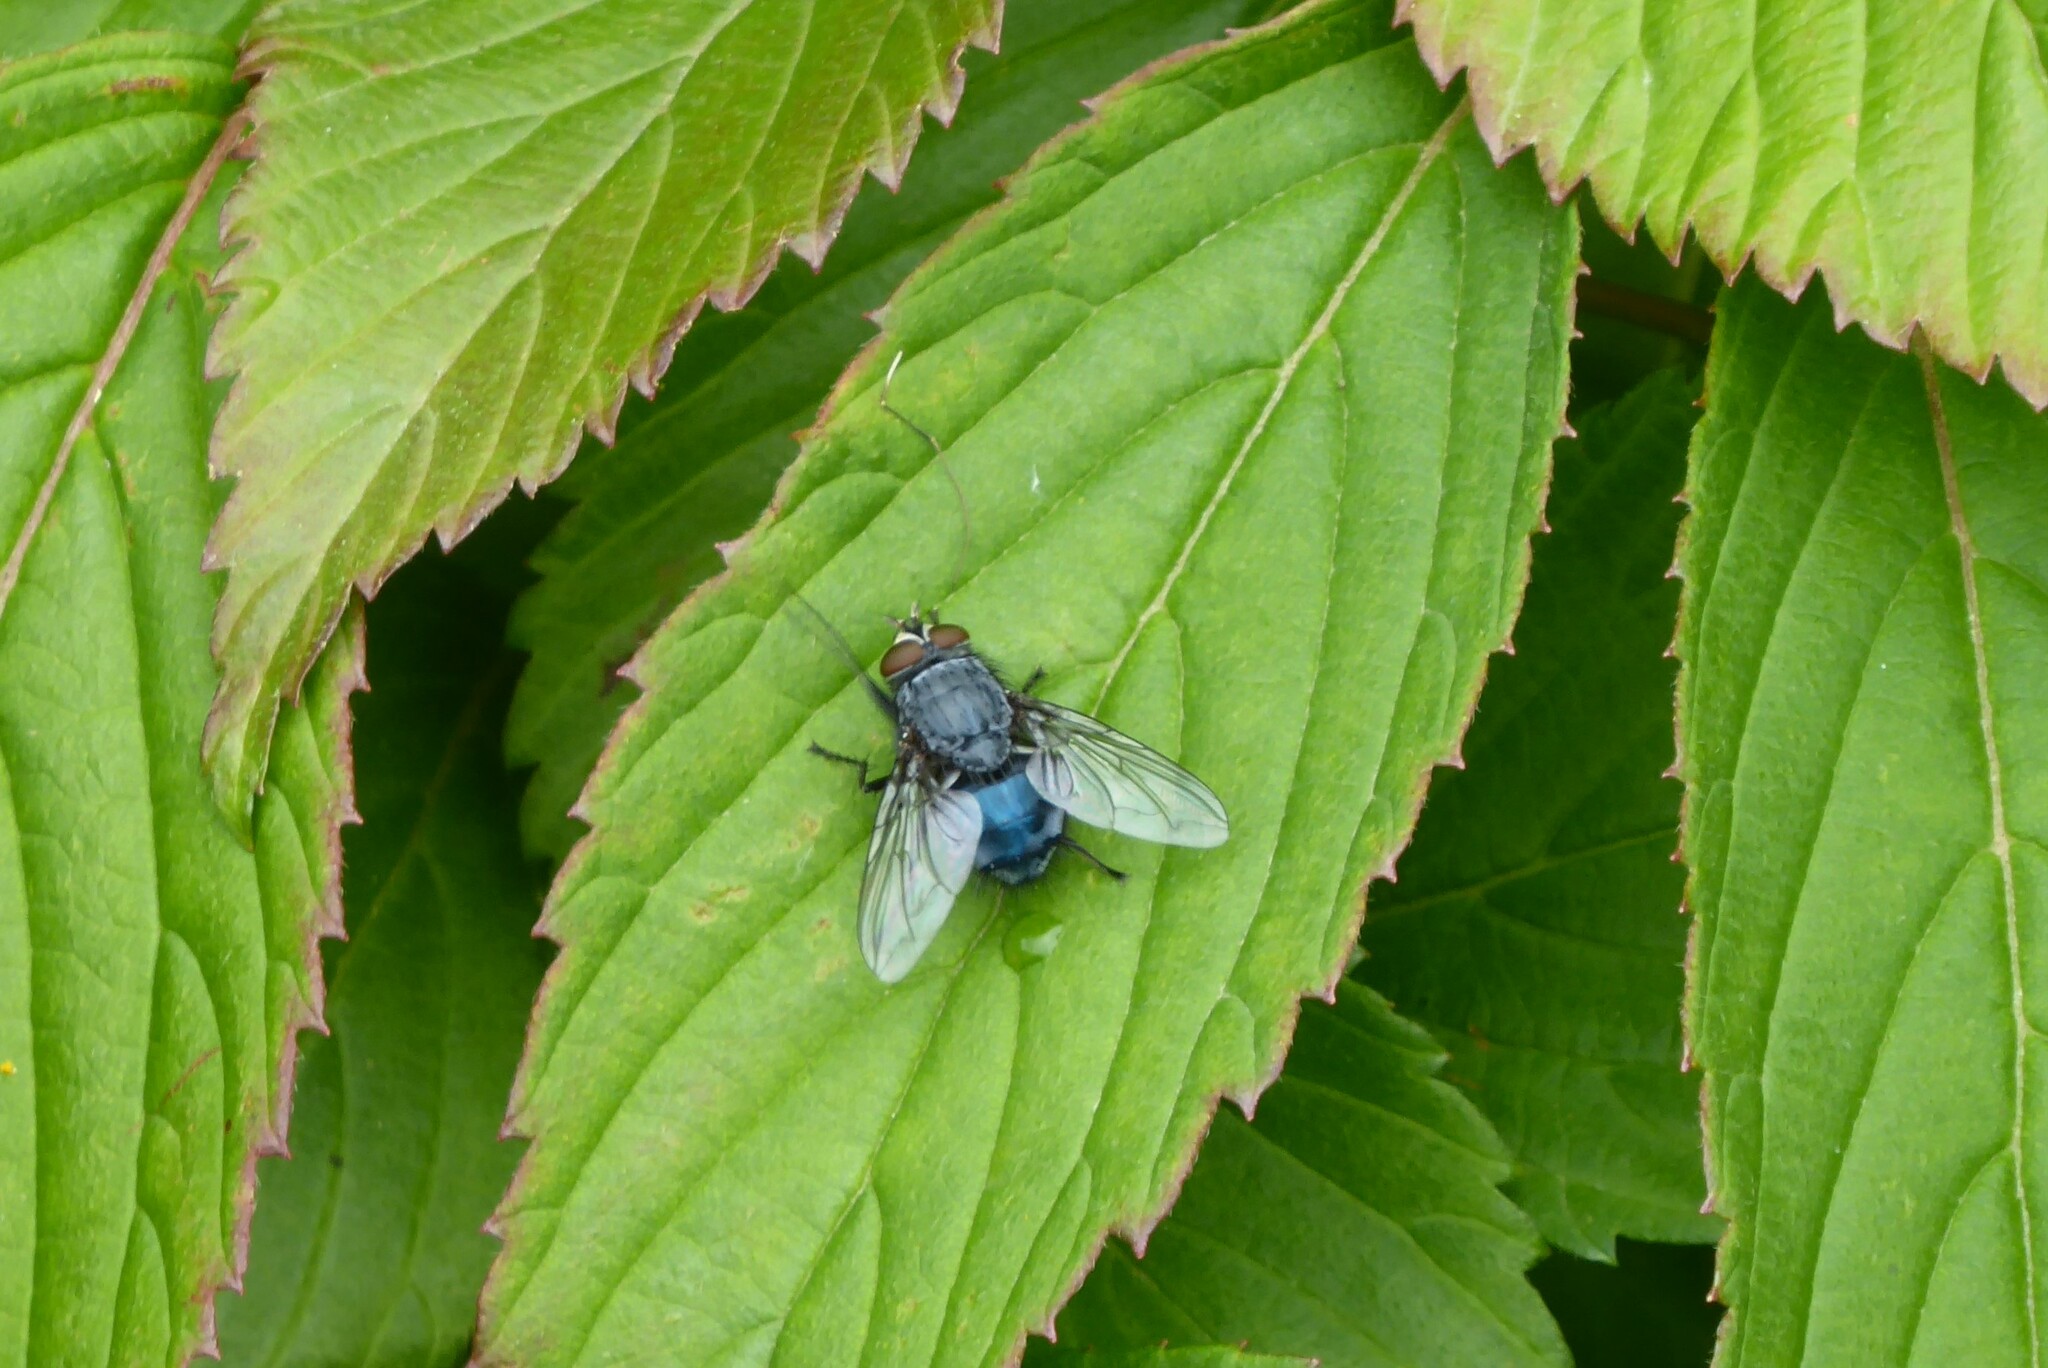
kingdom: Animalia
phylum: Arthropoda
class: Insecta
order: Diptera
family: Calliphoridae
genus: Calliphora
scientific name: Calliphora vicina
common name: Common blow flie
